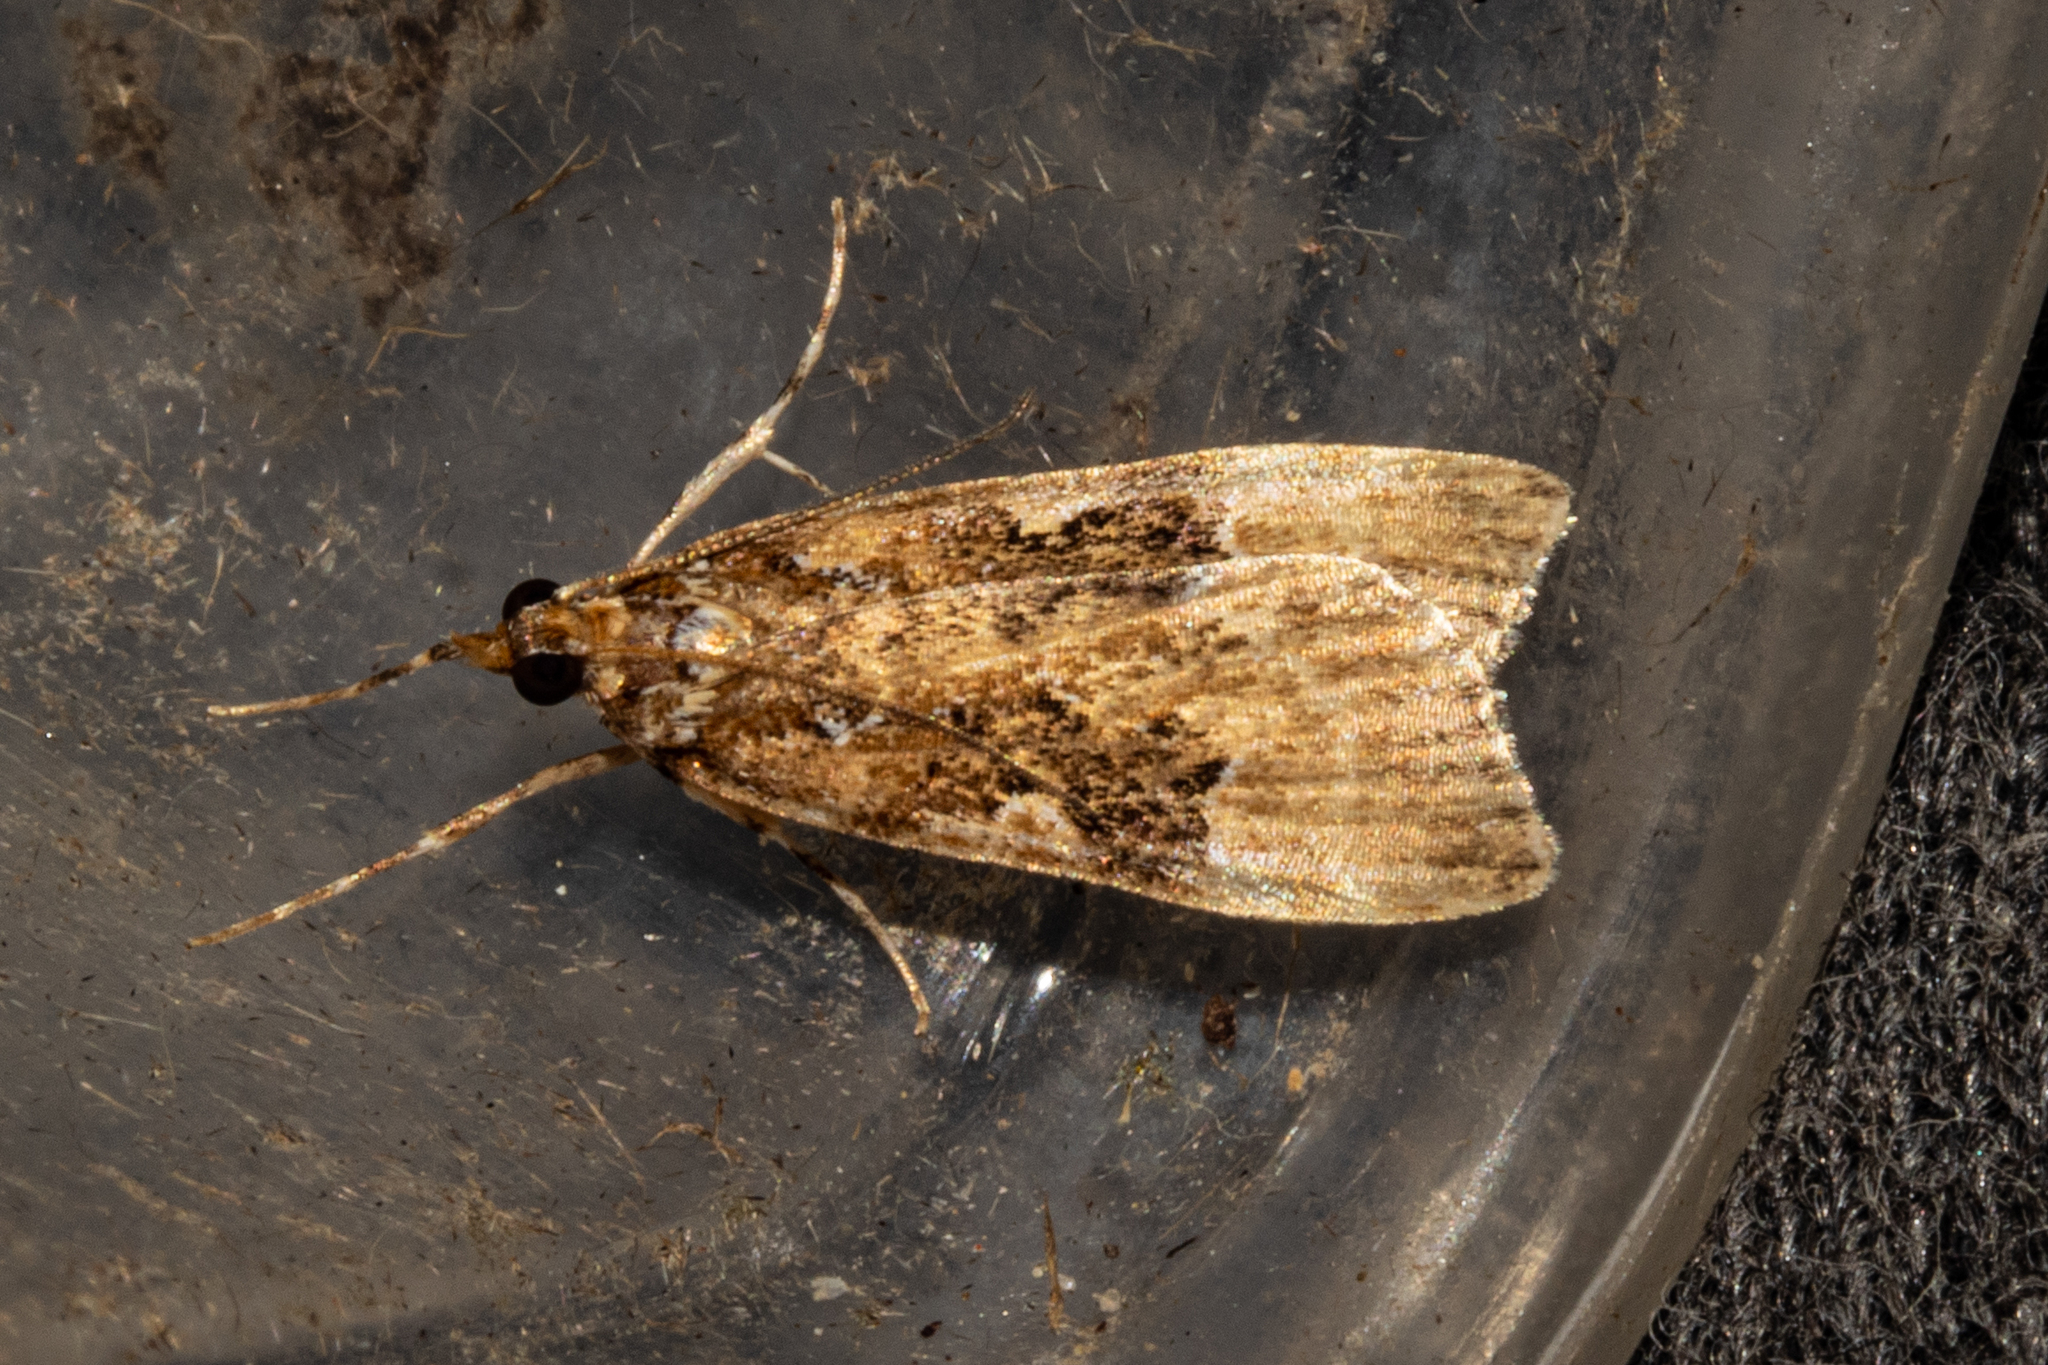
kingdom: Animalia
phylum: Arthropoda
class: Insecta
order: Lepidoptera
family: Crambidae
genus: Scoparia
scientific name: Scoparia ustimacula
